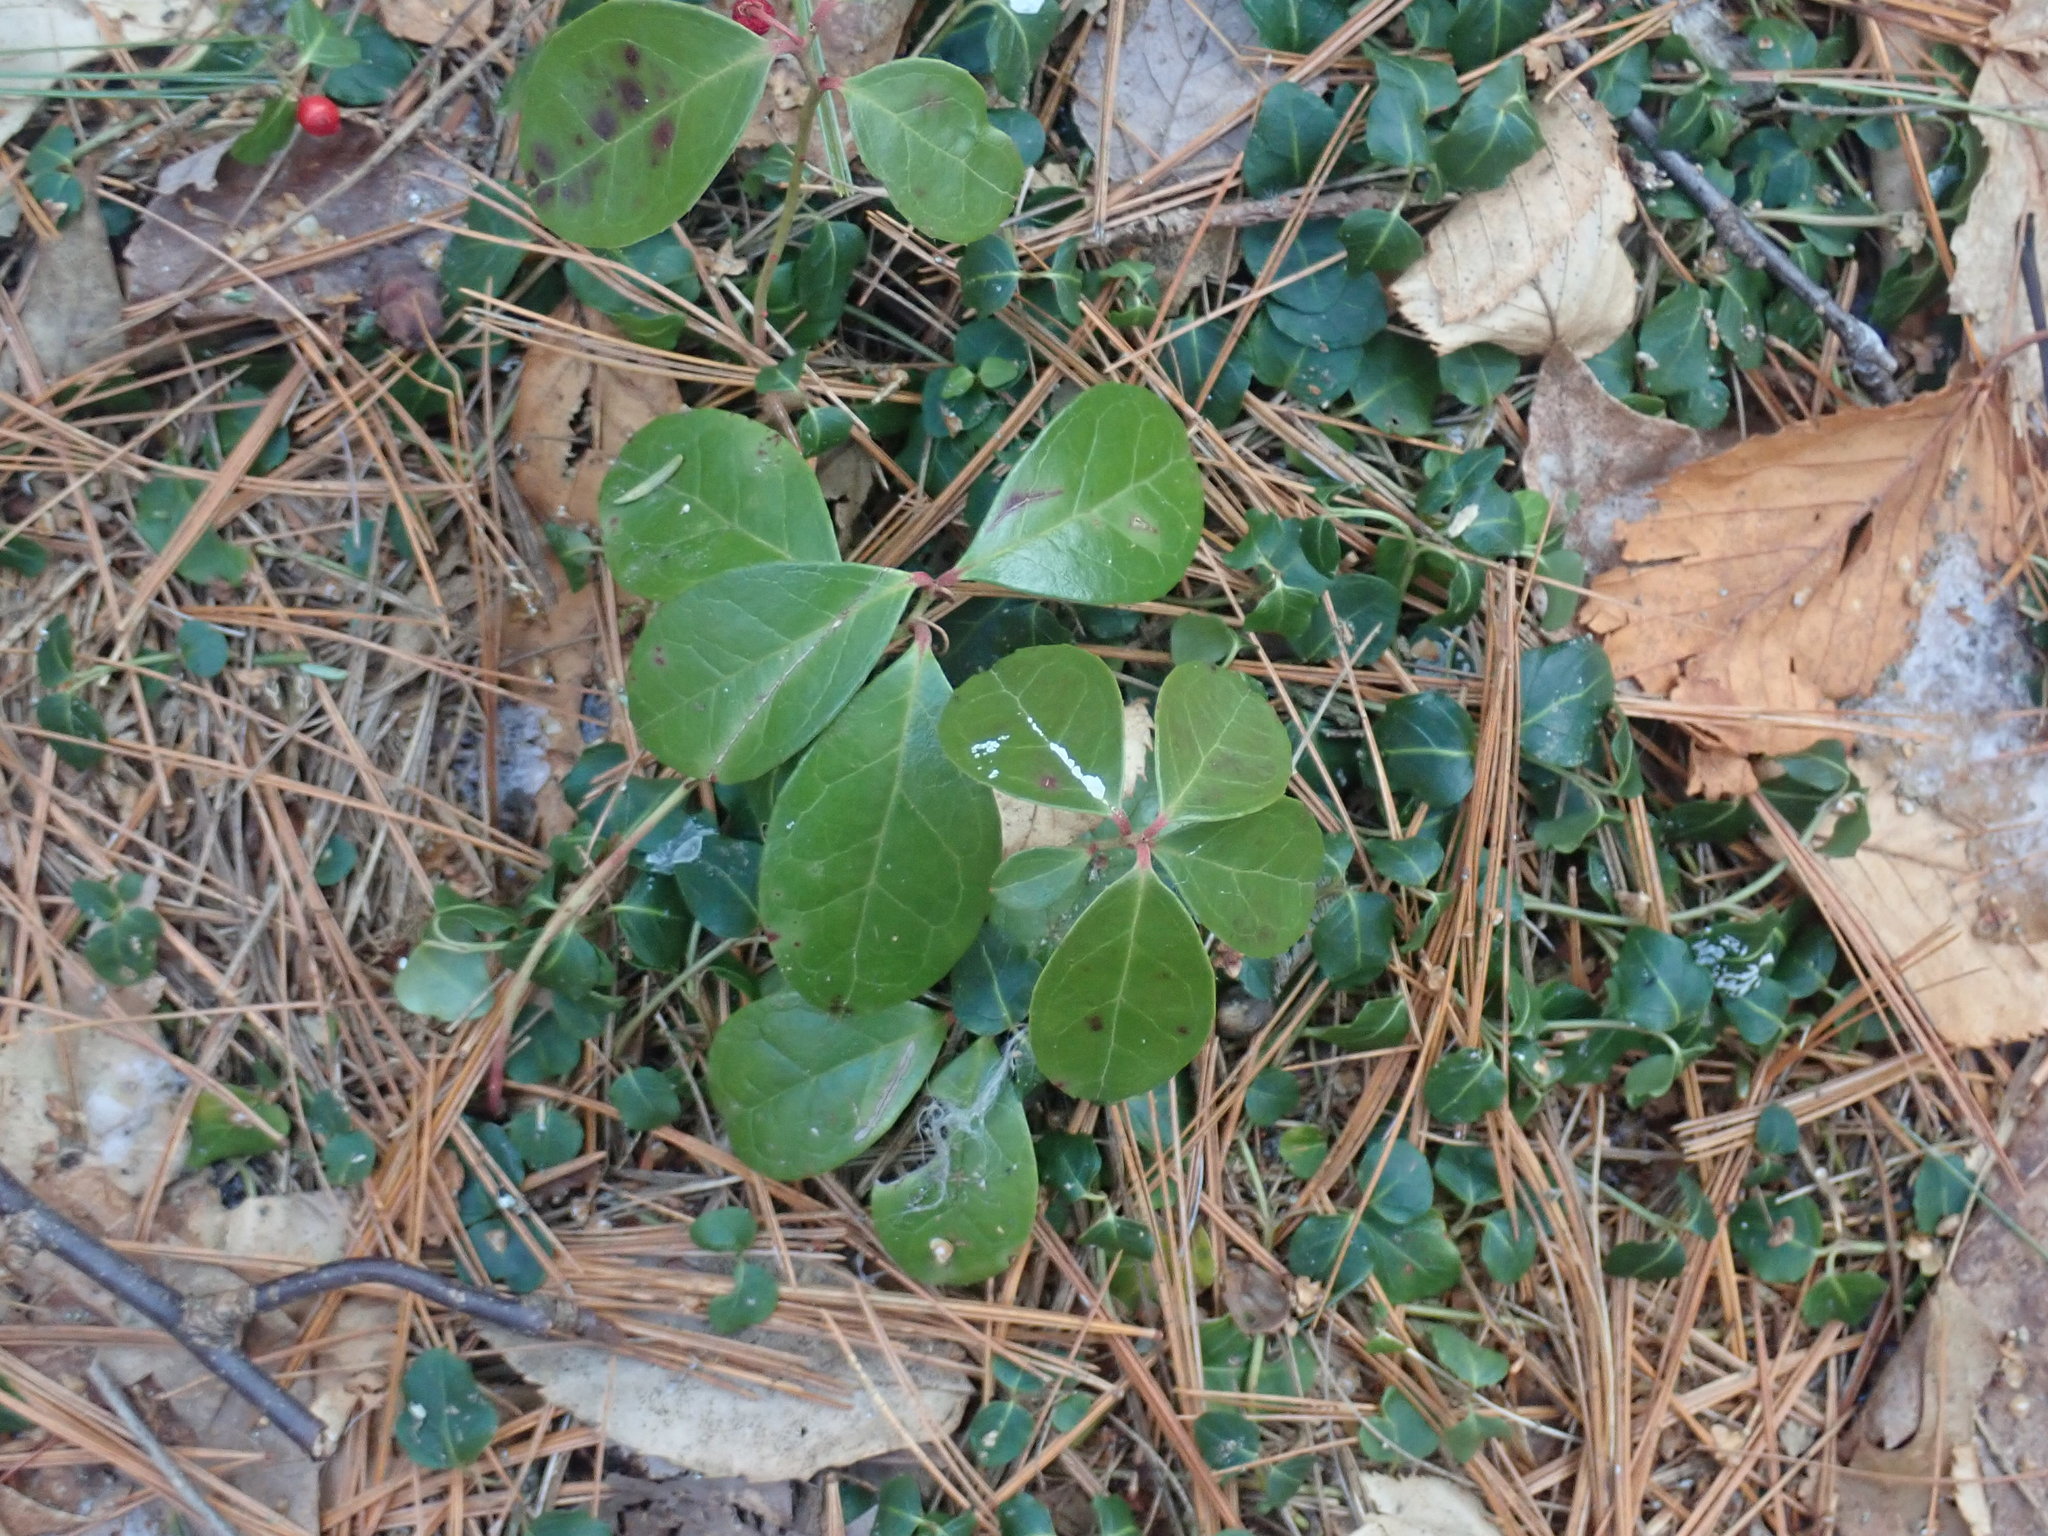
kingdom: Plantae
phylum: Tracheophyta
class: Magnoliopsida
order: Ericales
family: Ericaceae
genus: Gaultheria
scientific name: Gaultheria procumbens
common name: Checkerberry
